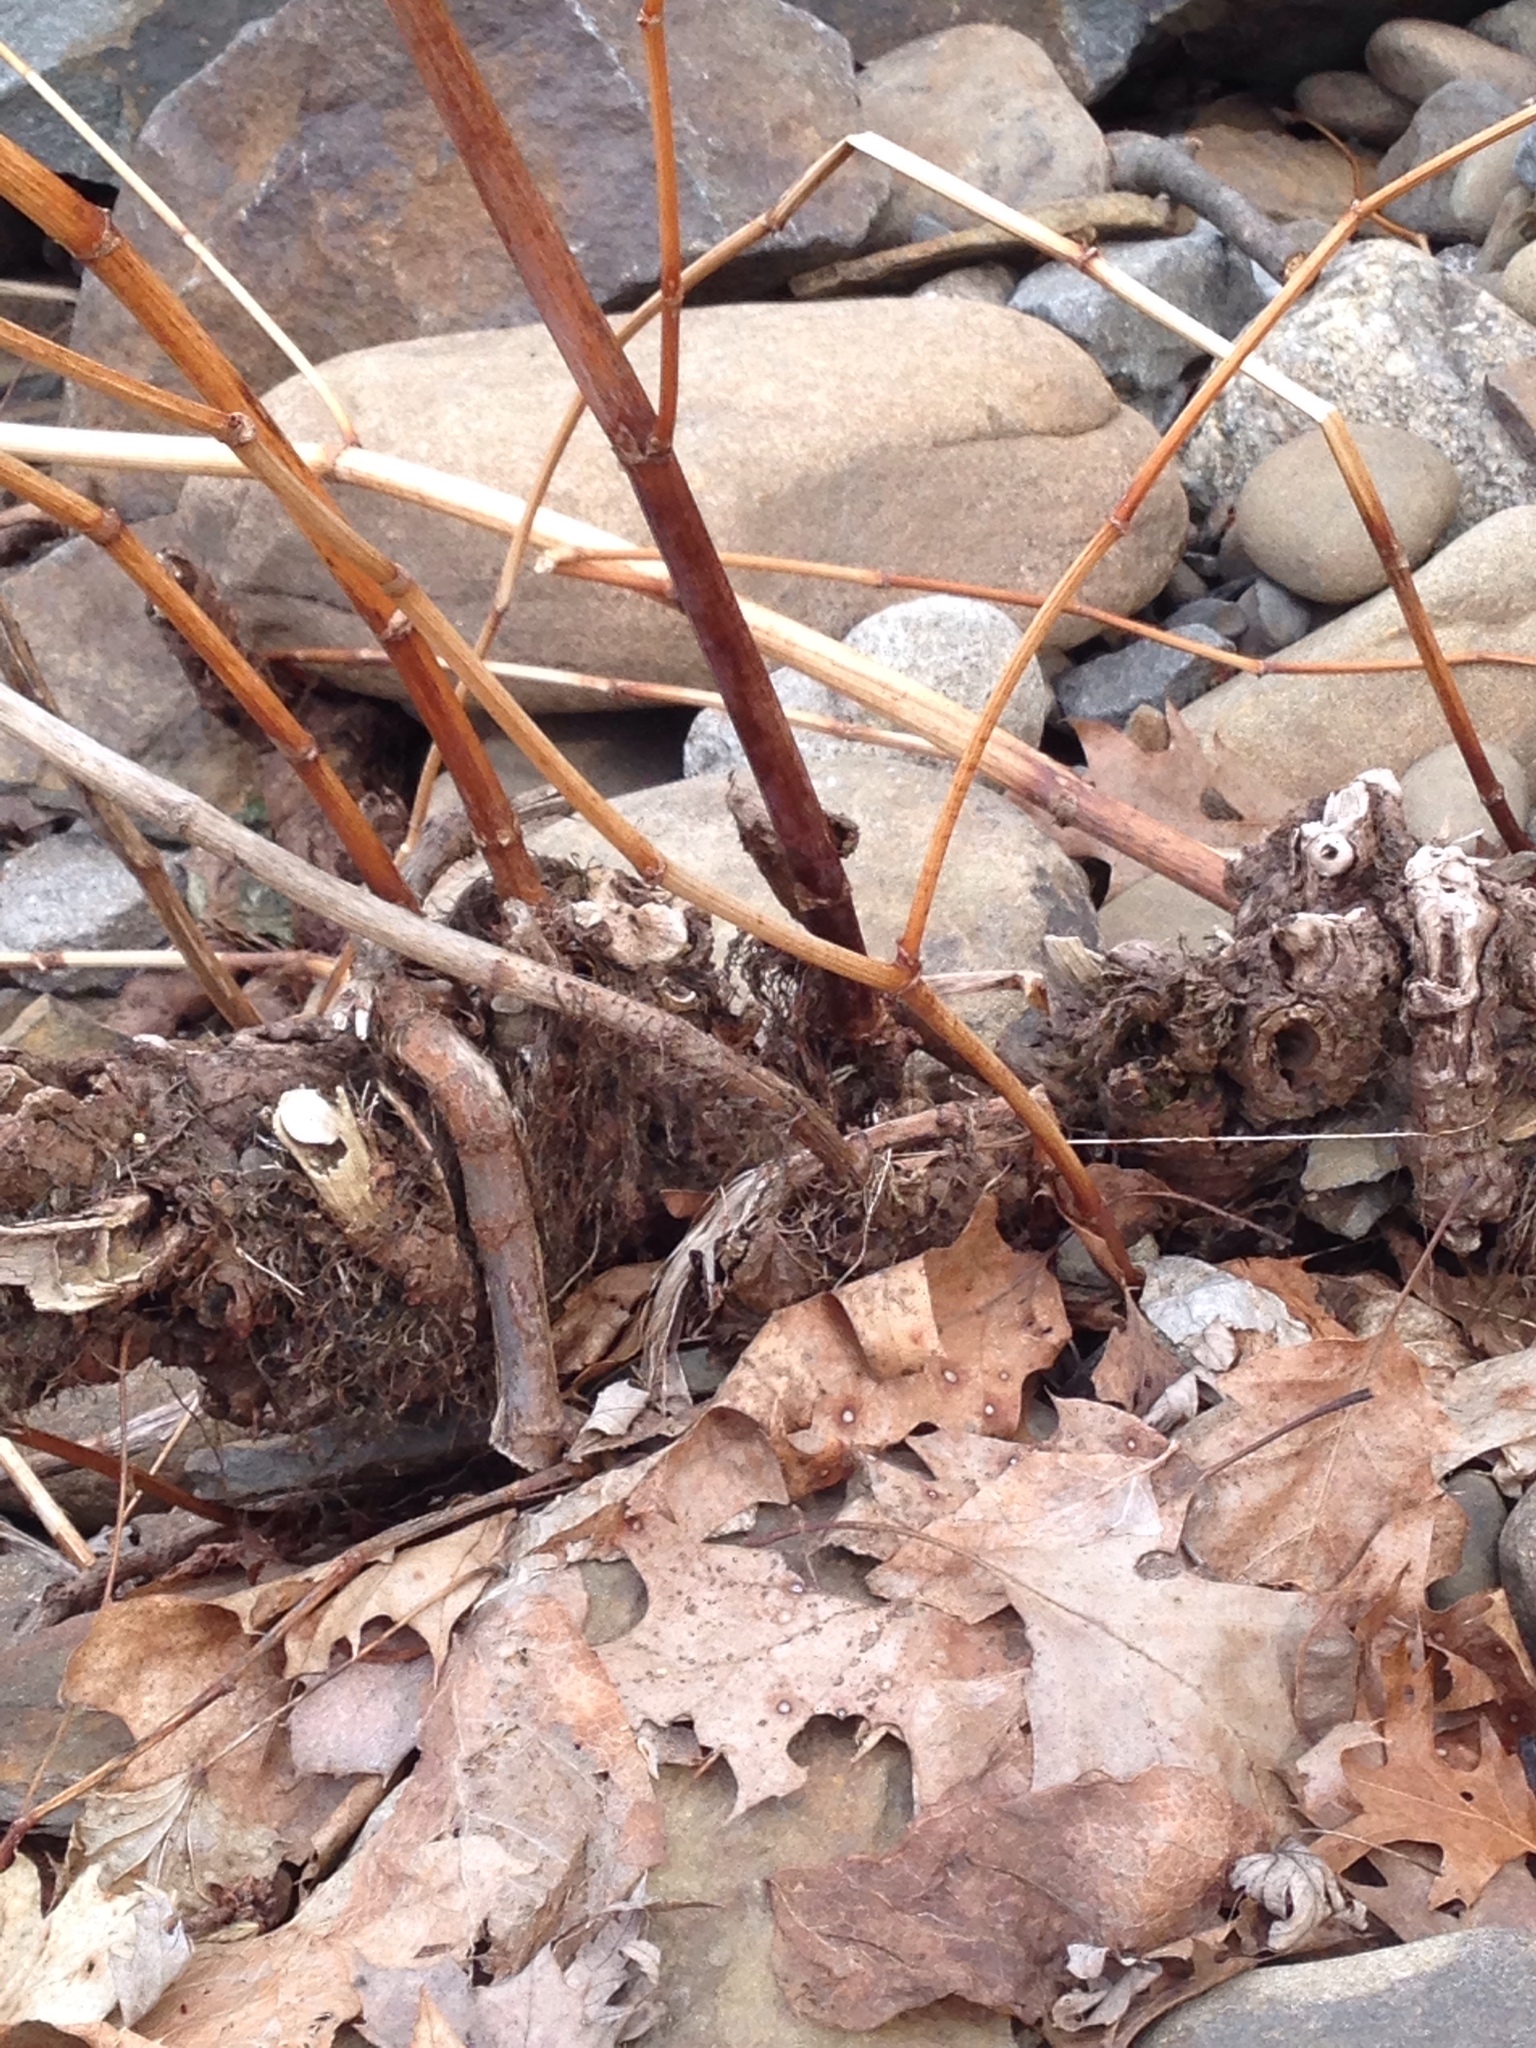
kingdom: Plantae
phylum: Tracheophyta
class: Magnoliopsida
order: Caryophyllales
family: Polygonaceae
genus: Reynoutria
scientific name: Reynoutria japonica
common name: Japanese knotweed
